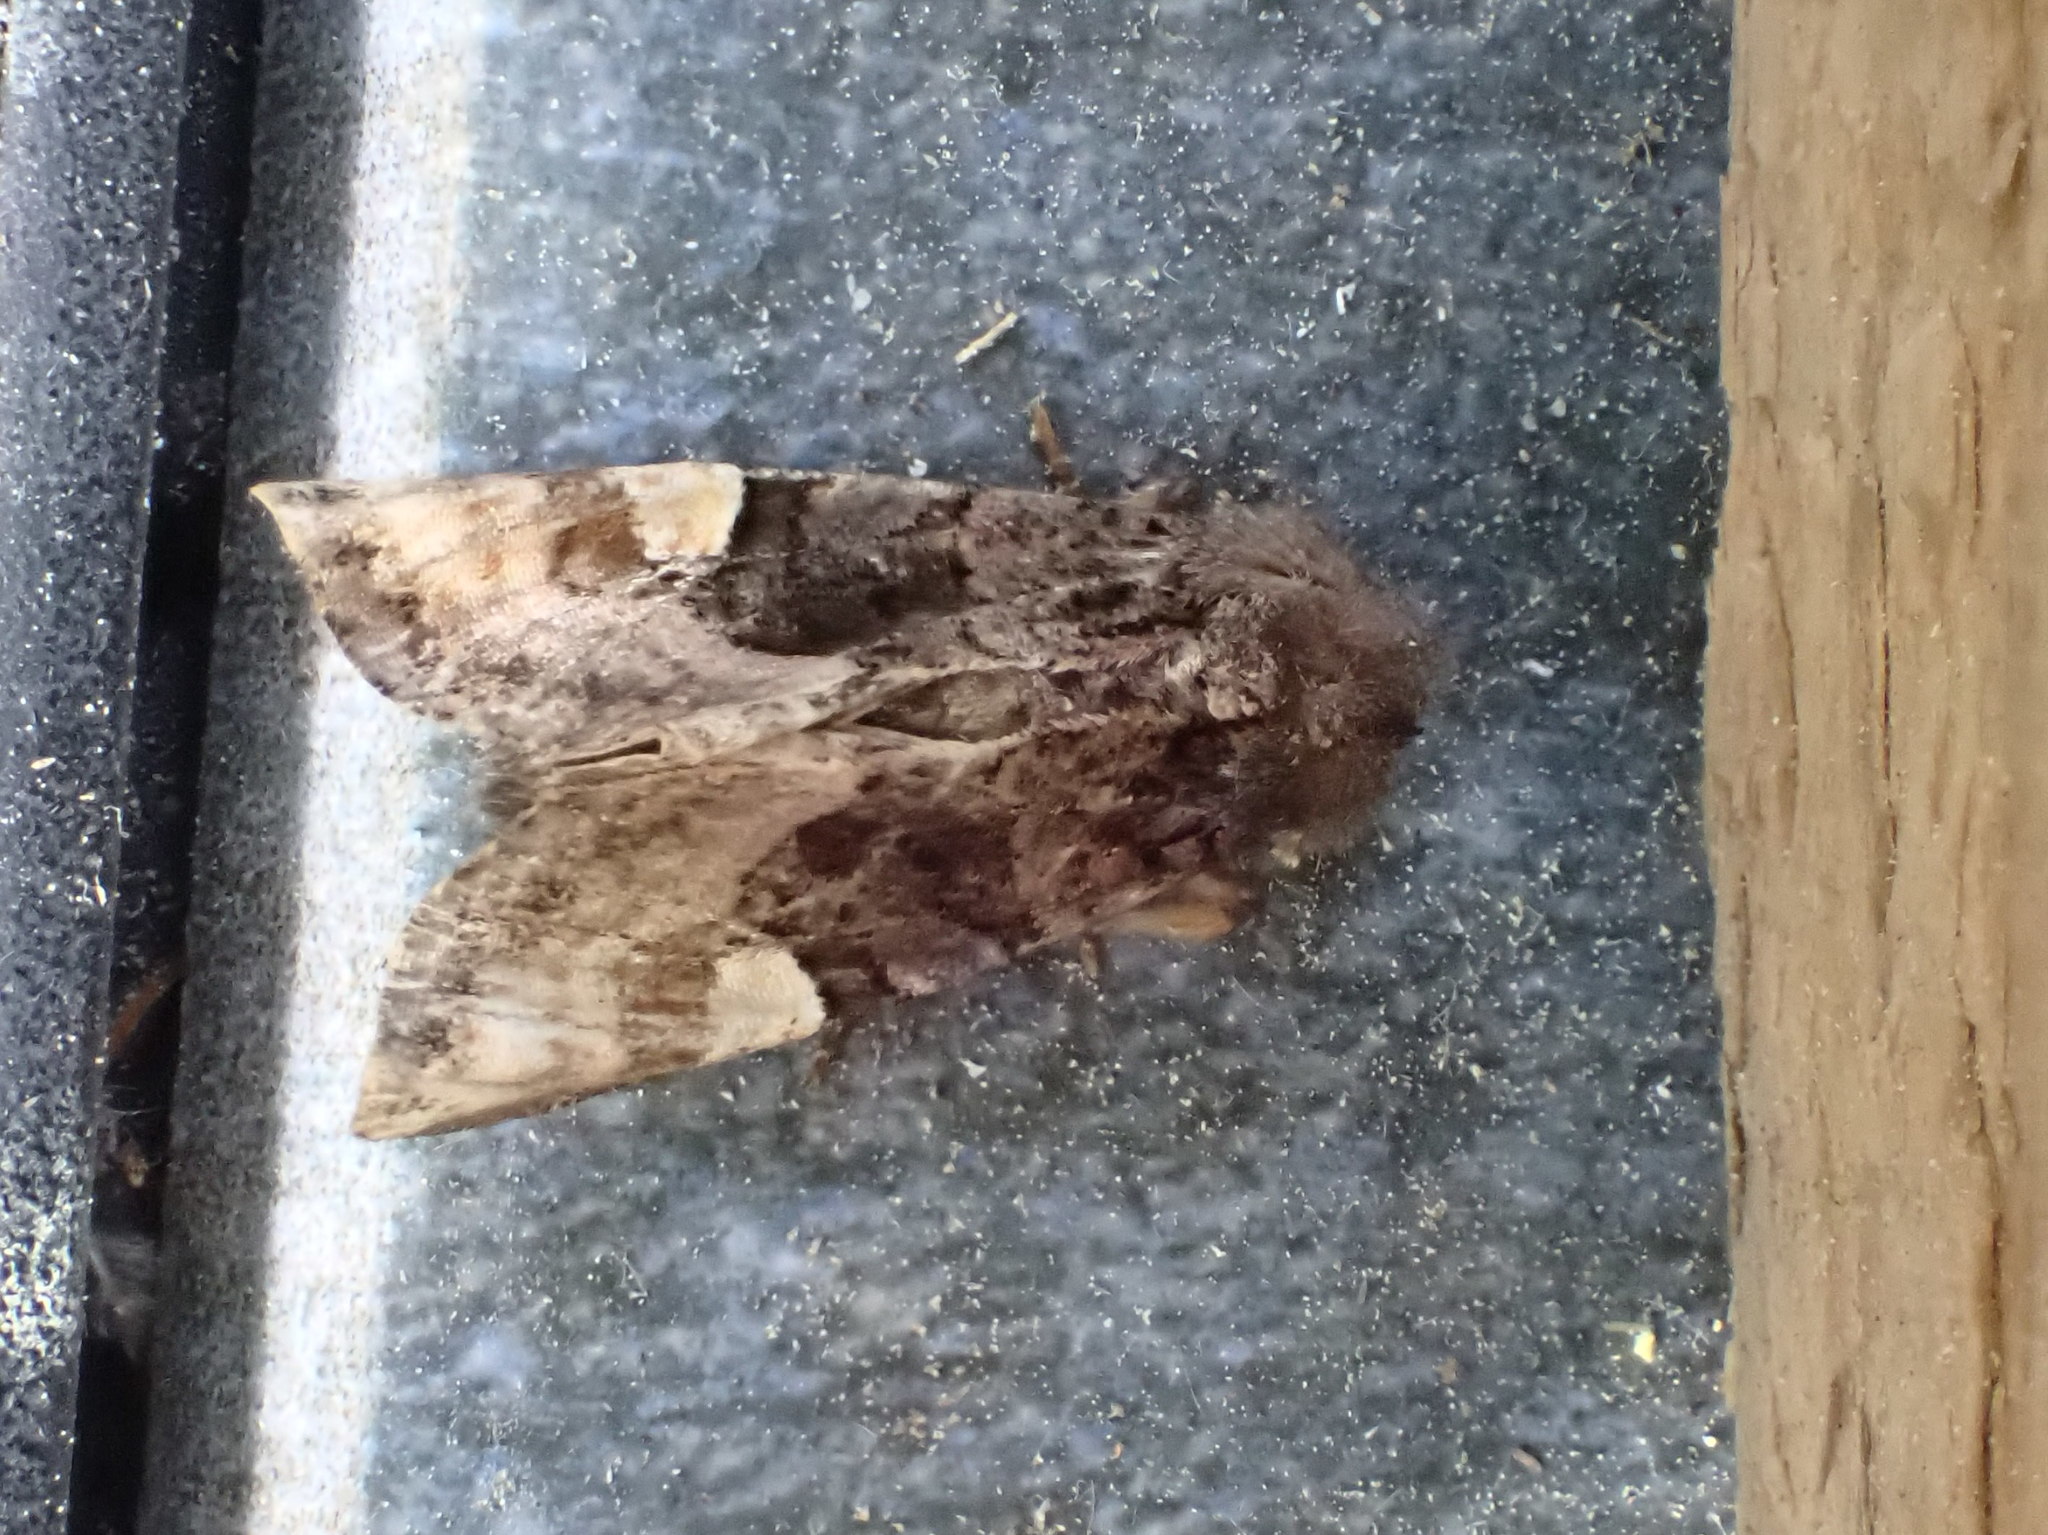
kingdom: Animalia
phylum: Arthropoda
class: Insecta
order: Lepidoptera
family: Noctuidae
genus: Euplexia
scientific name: Euplexia benesimilis
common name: American angle shades
